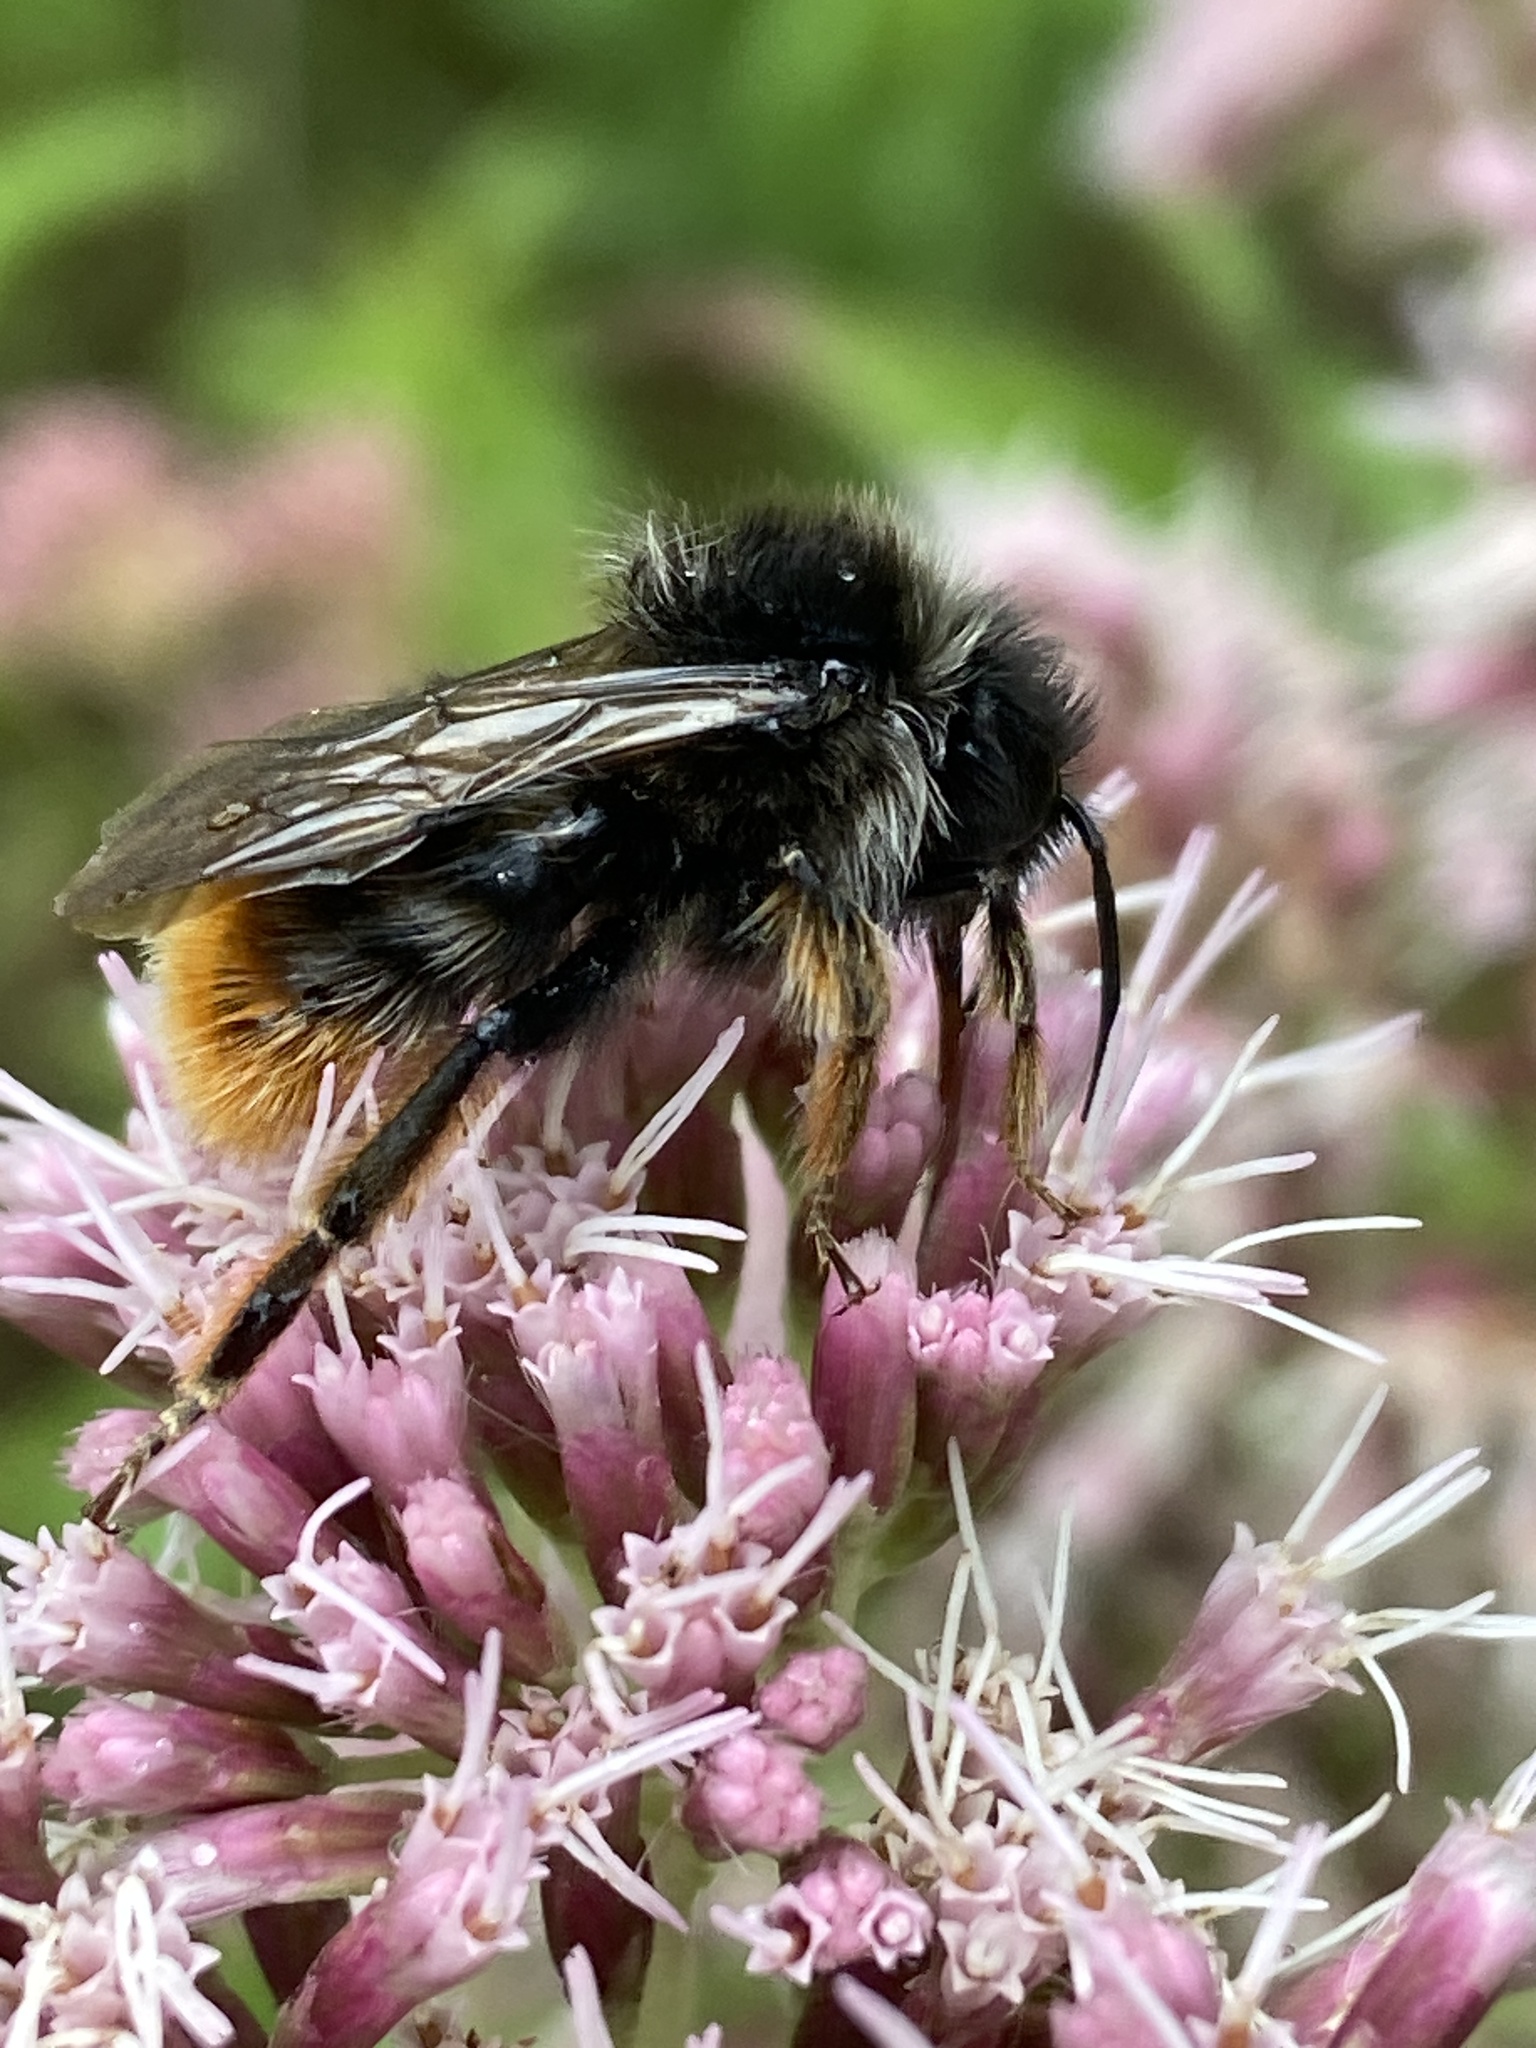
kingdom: Animalia
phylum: Arthropoda
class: Insecta
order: Hymenoptera
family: Apidae
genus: Bombus
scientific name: Bombus rupestris
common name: Hill cuckoo-bee
